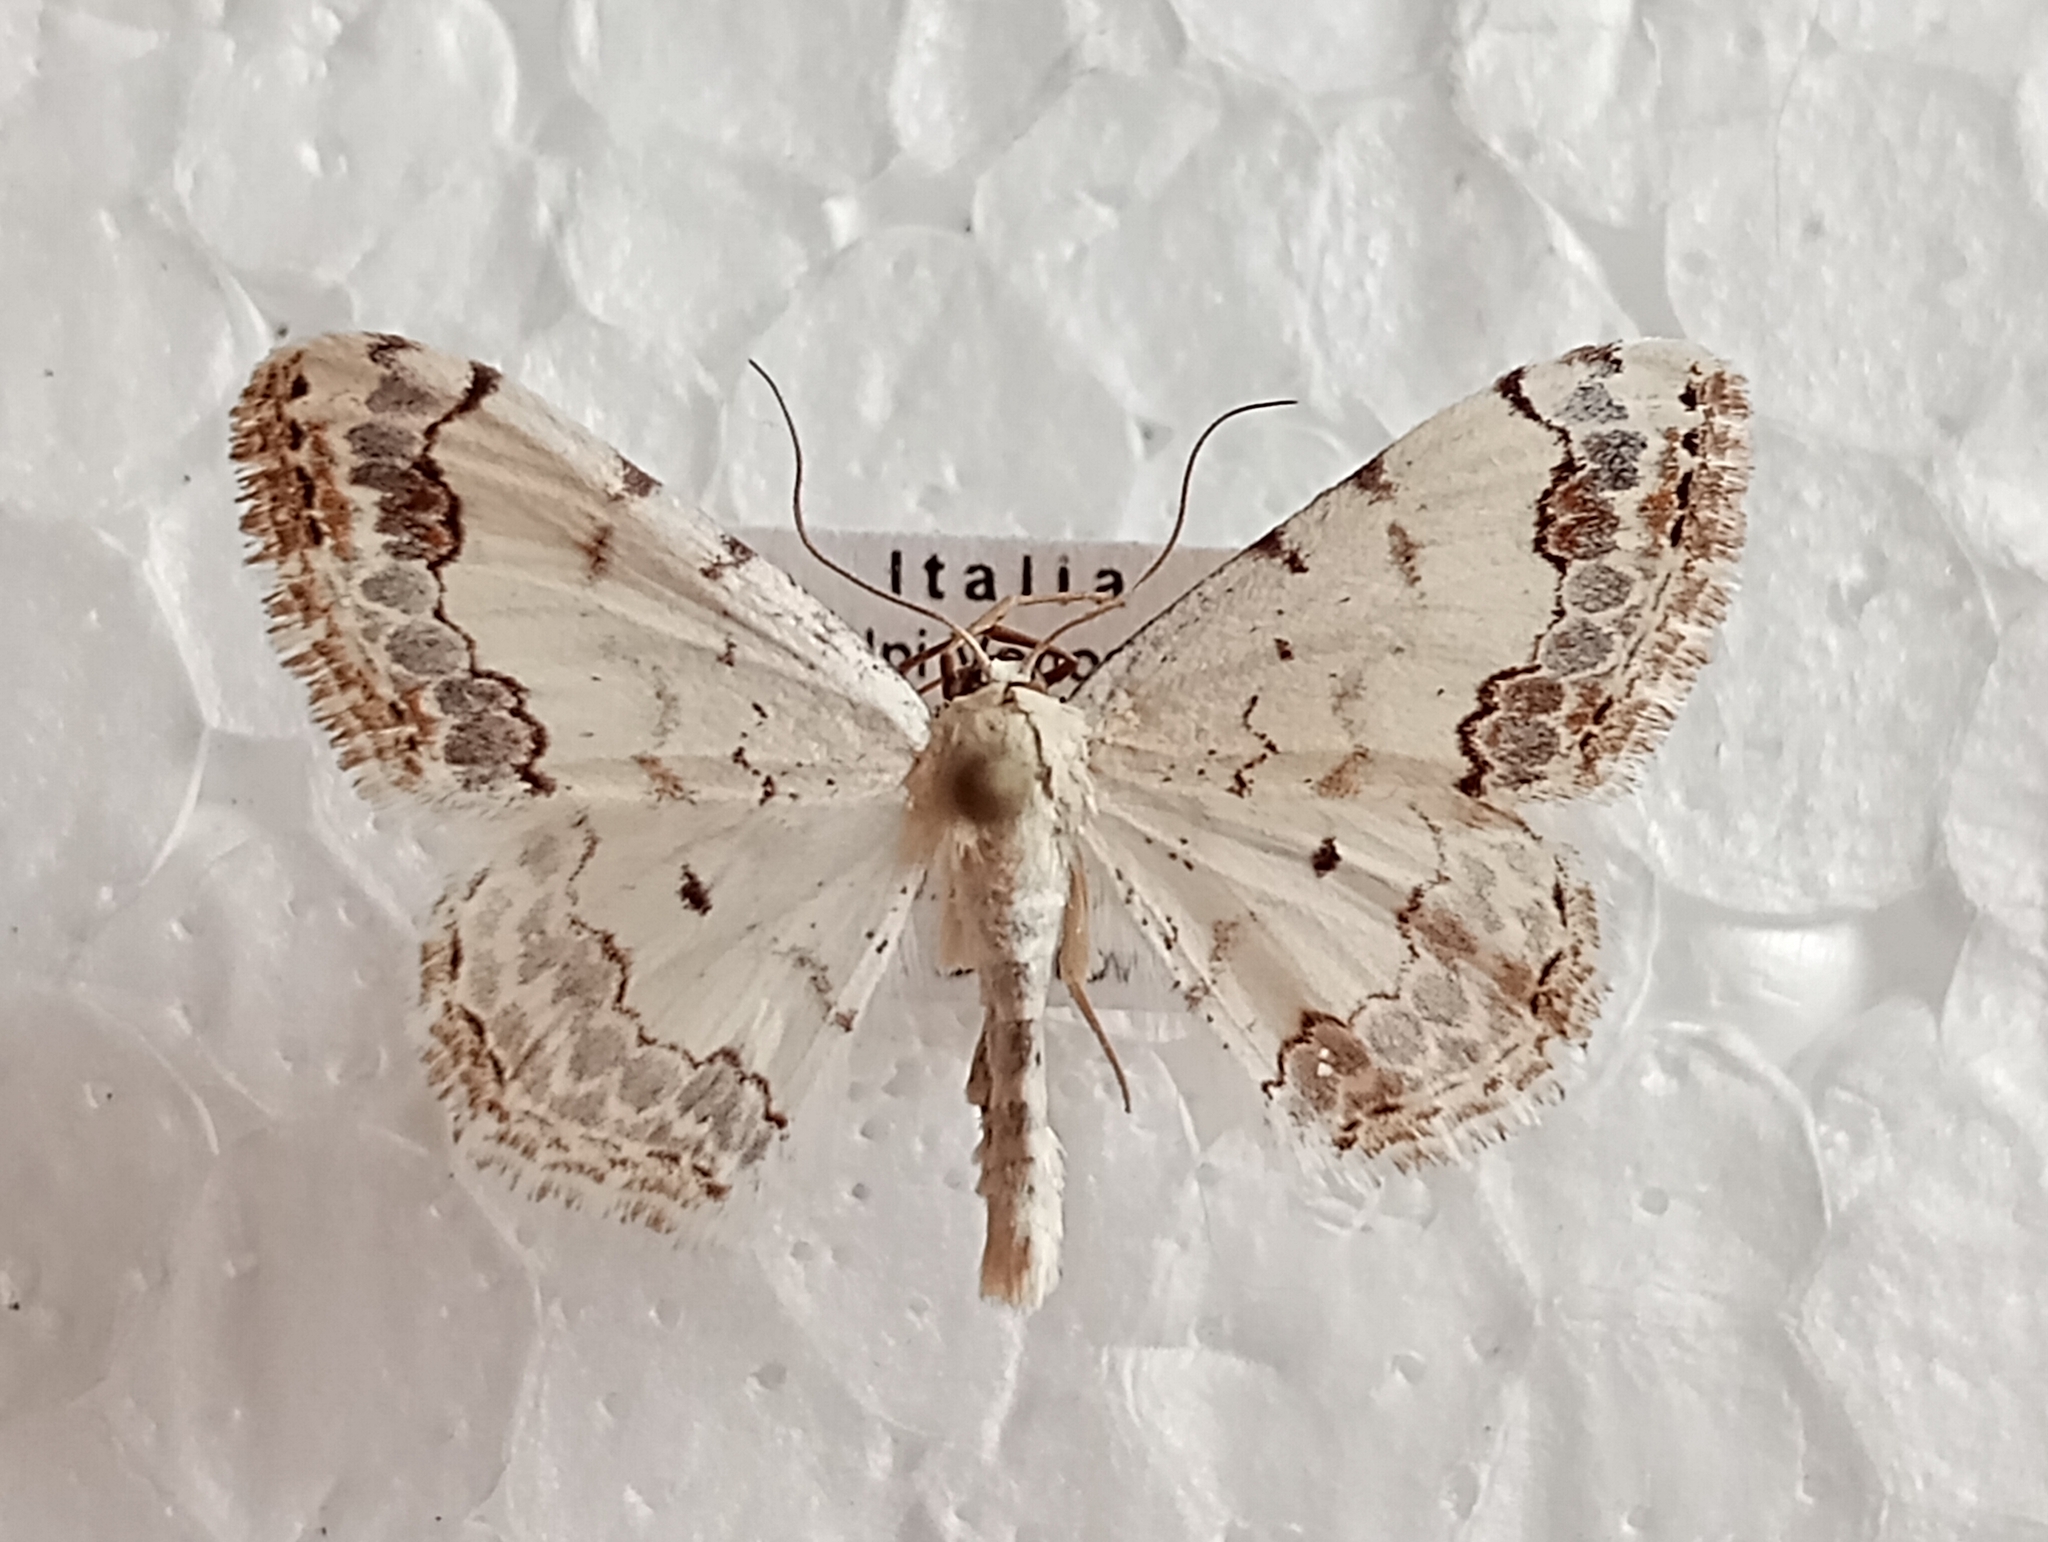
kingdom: Animalia
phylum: Arthropoda
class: Insecta
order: Lepidoptera
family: Geometridae
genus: Scopula
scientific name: Scopula decorata
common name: Middle lace border
